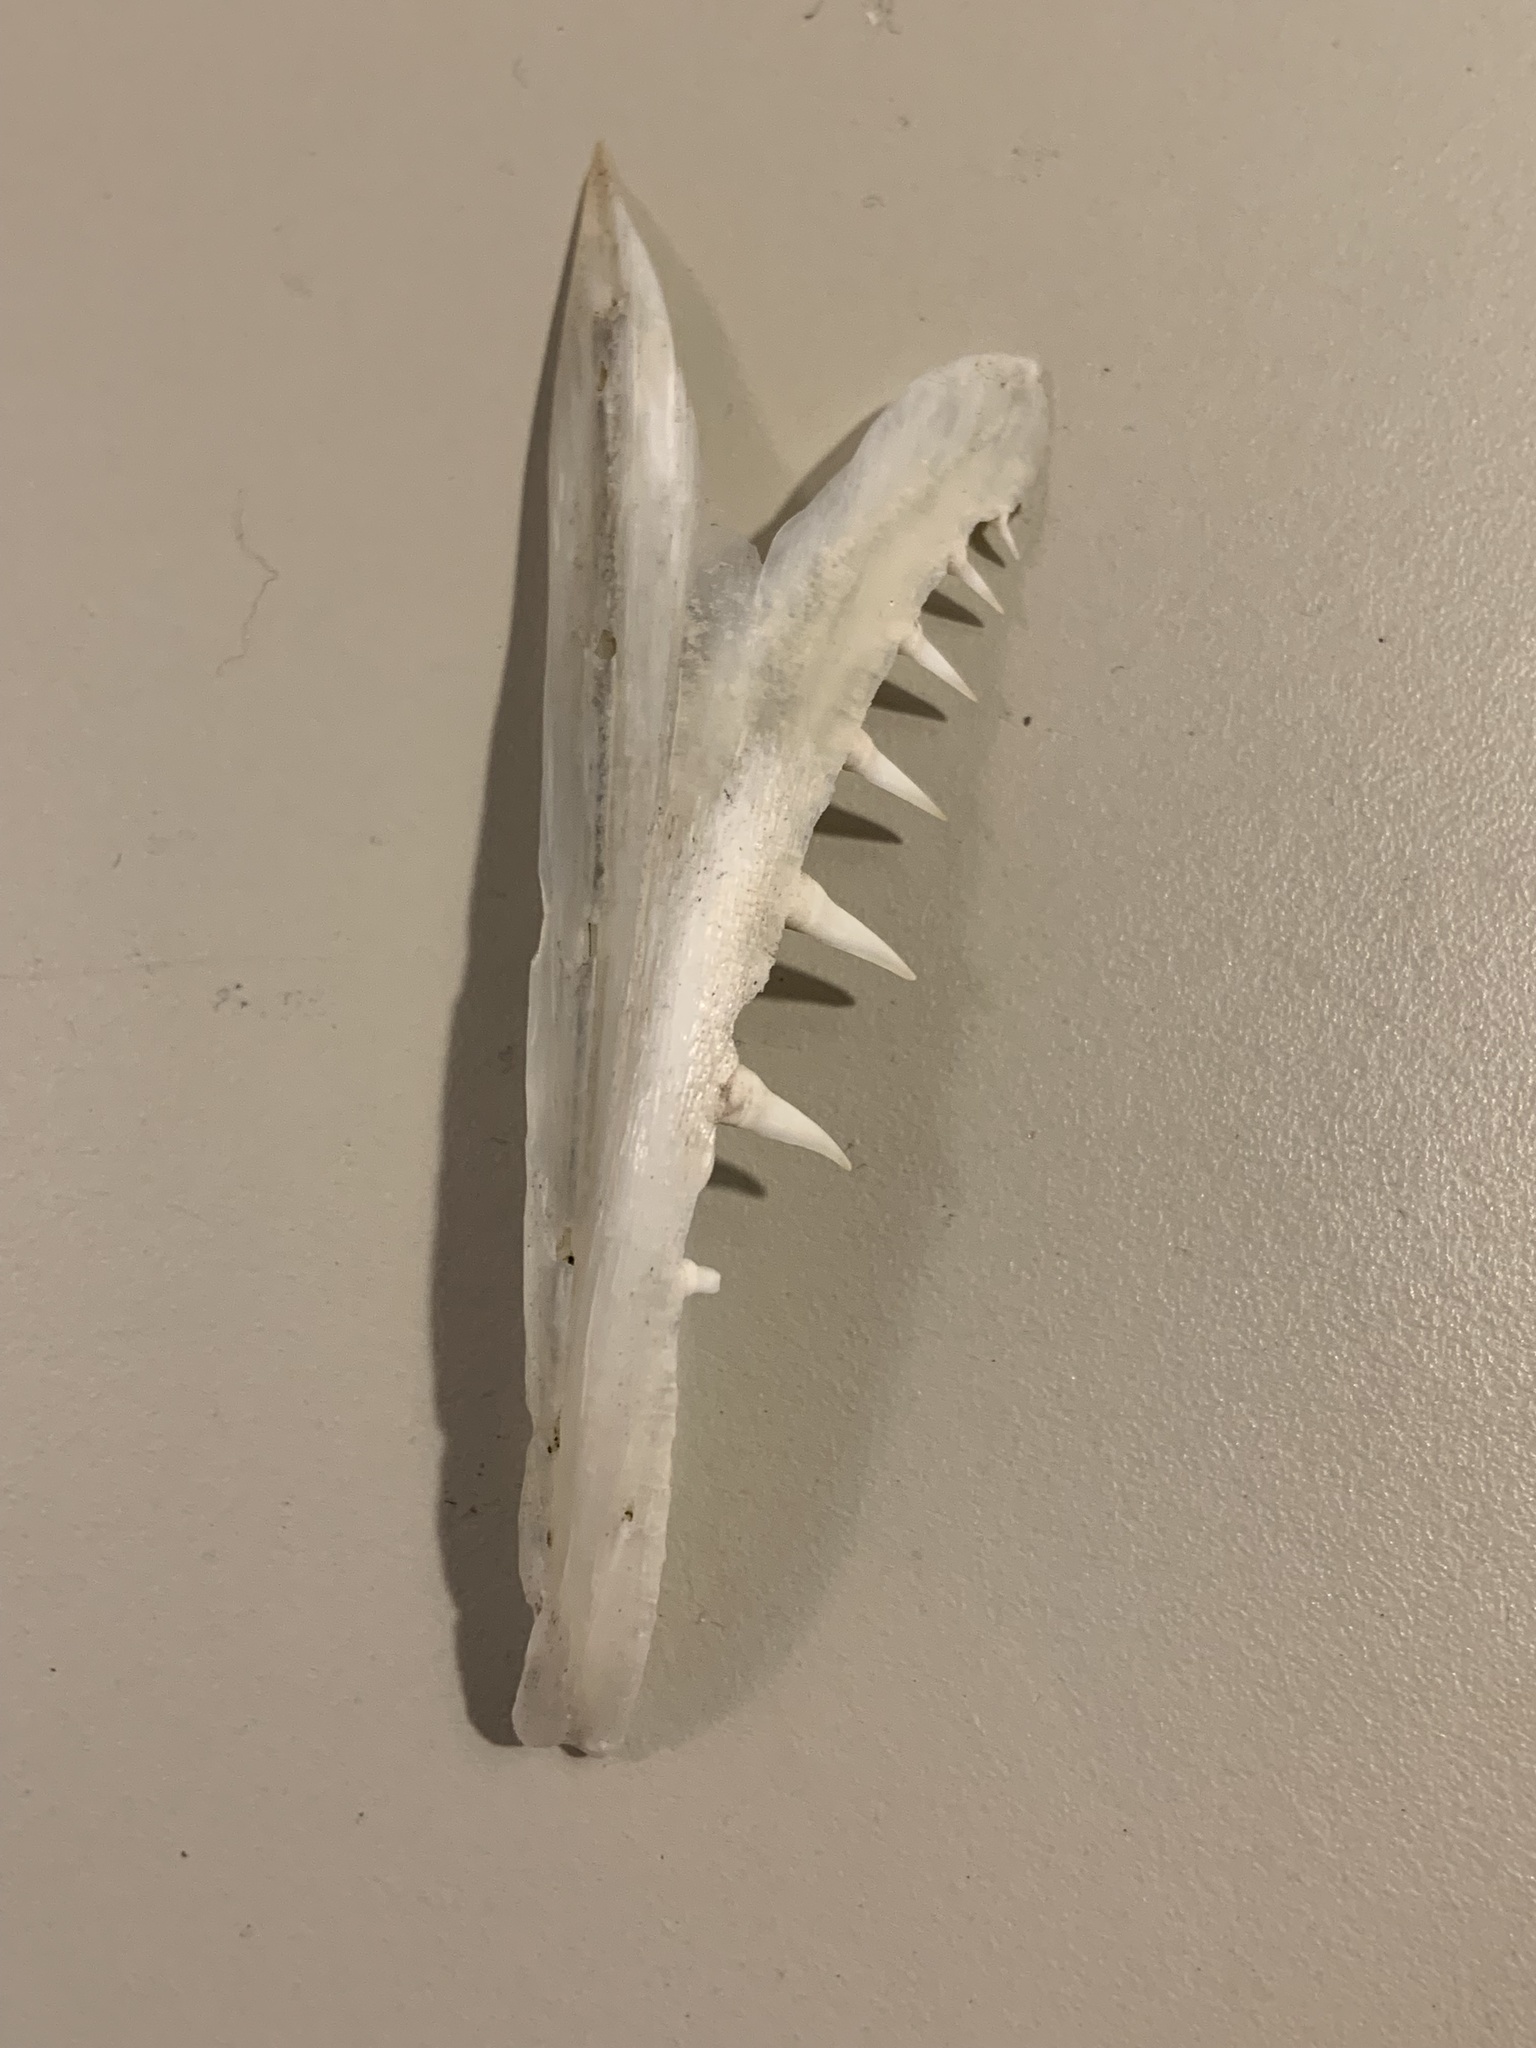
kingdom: Animalia
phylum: Chordata
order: Esociformes
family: Esocidae
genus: Esox
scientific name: Esox lucius
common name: Northern pike
